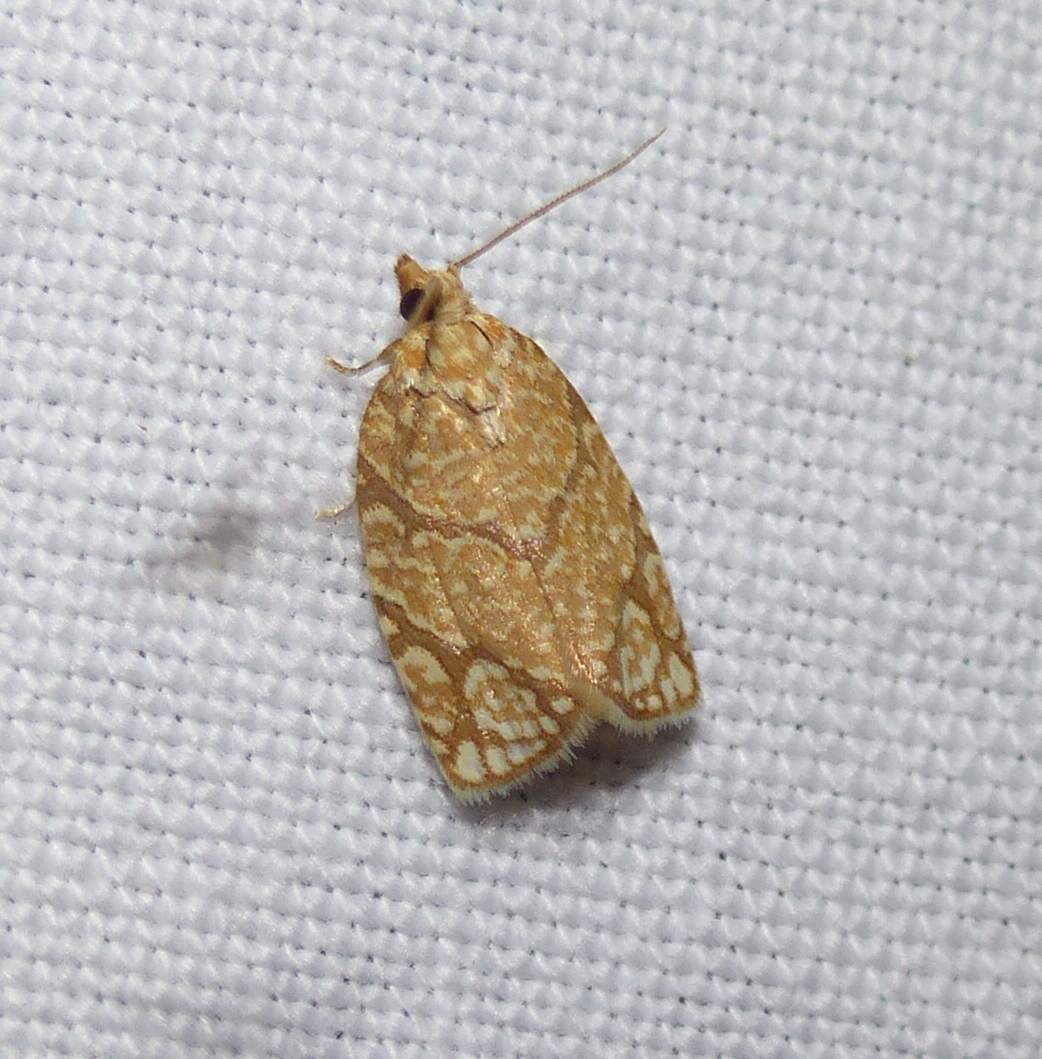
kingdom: Animalia
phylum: Arthropoda
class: Insecta
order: Lepidoptera
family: Tortricidae
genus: Argyrotaenia
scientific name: Argyrotaenia quercifoliana
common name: Yellow-winged oak leafroller moth
